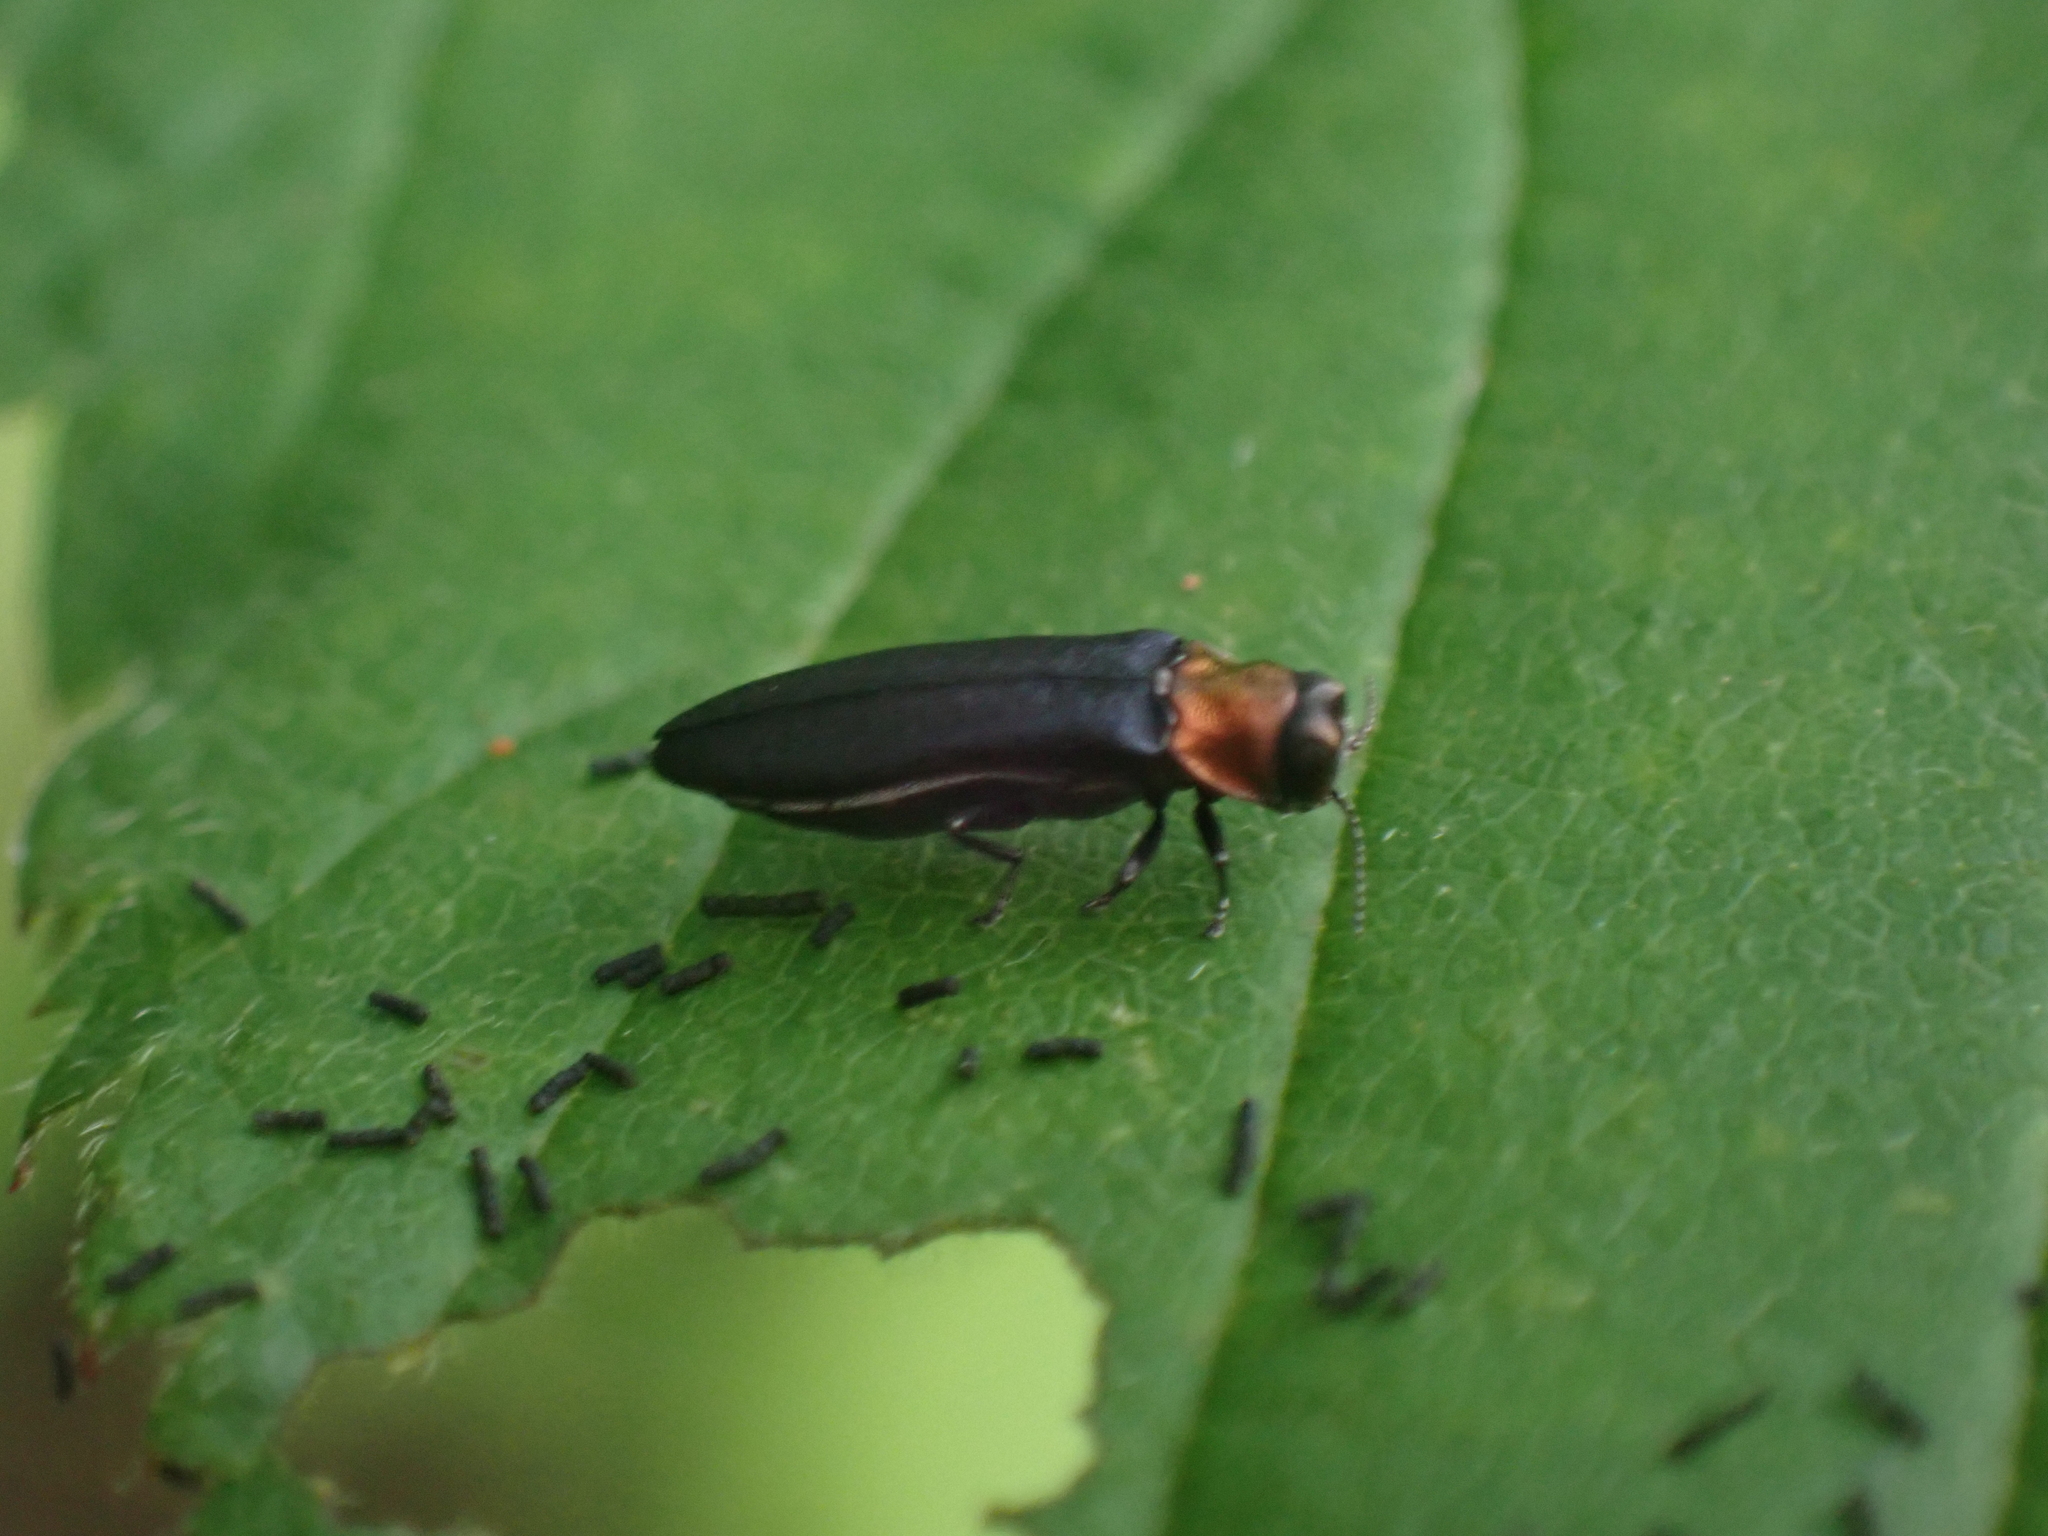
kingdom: Animalia
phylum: Arthropoda
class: Insecta
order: Coleoptera
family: Buprestidae
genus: Agrilus
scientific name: Agrilus ruficollis
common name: Red-necked cane borer beetle
